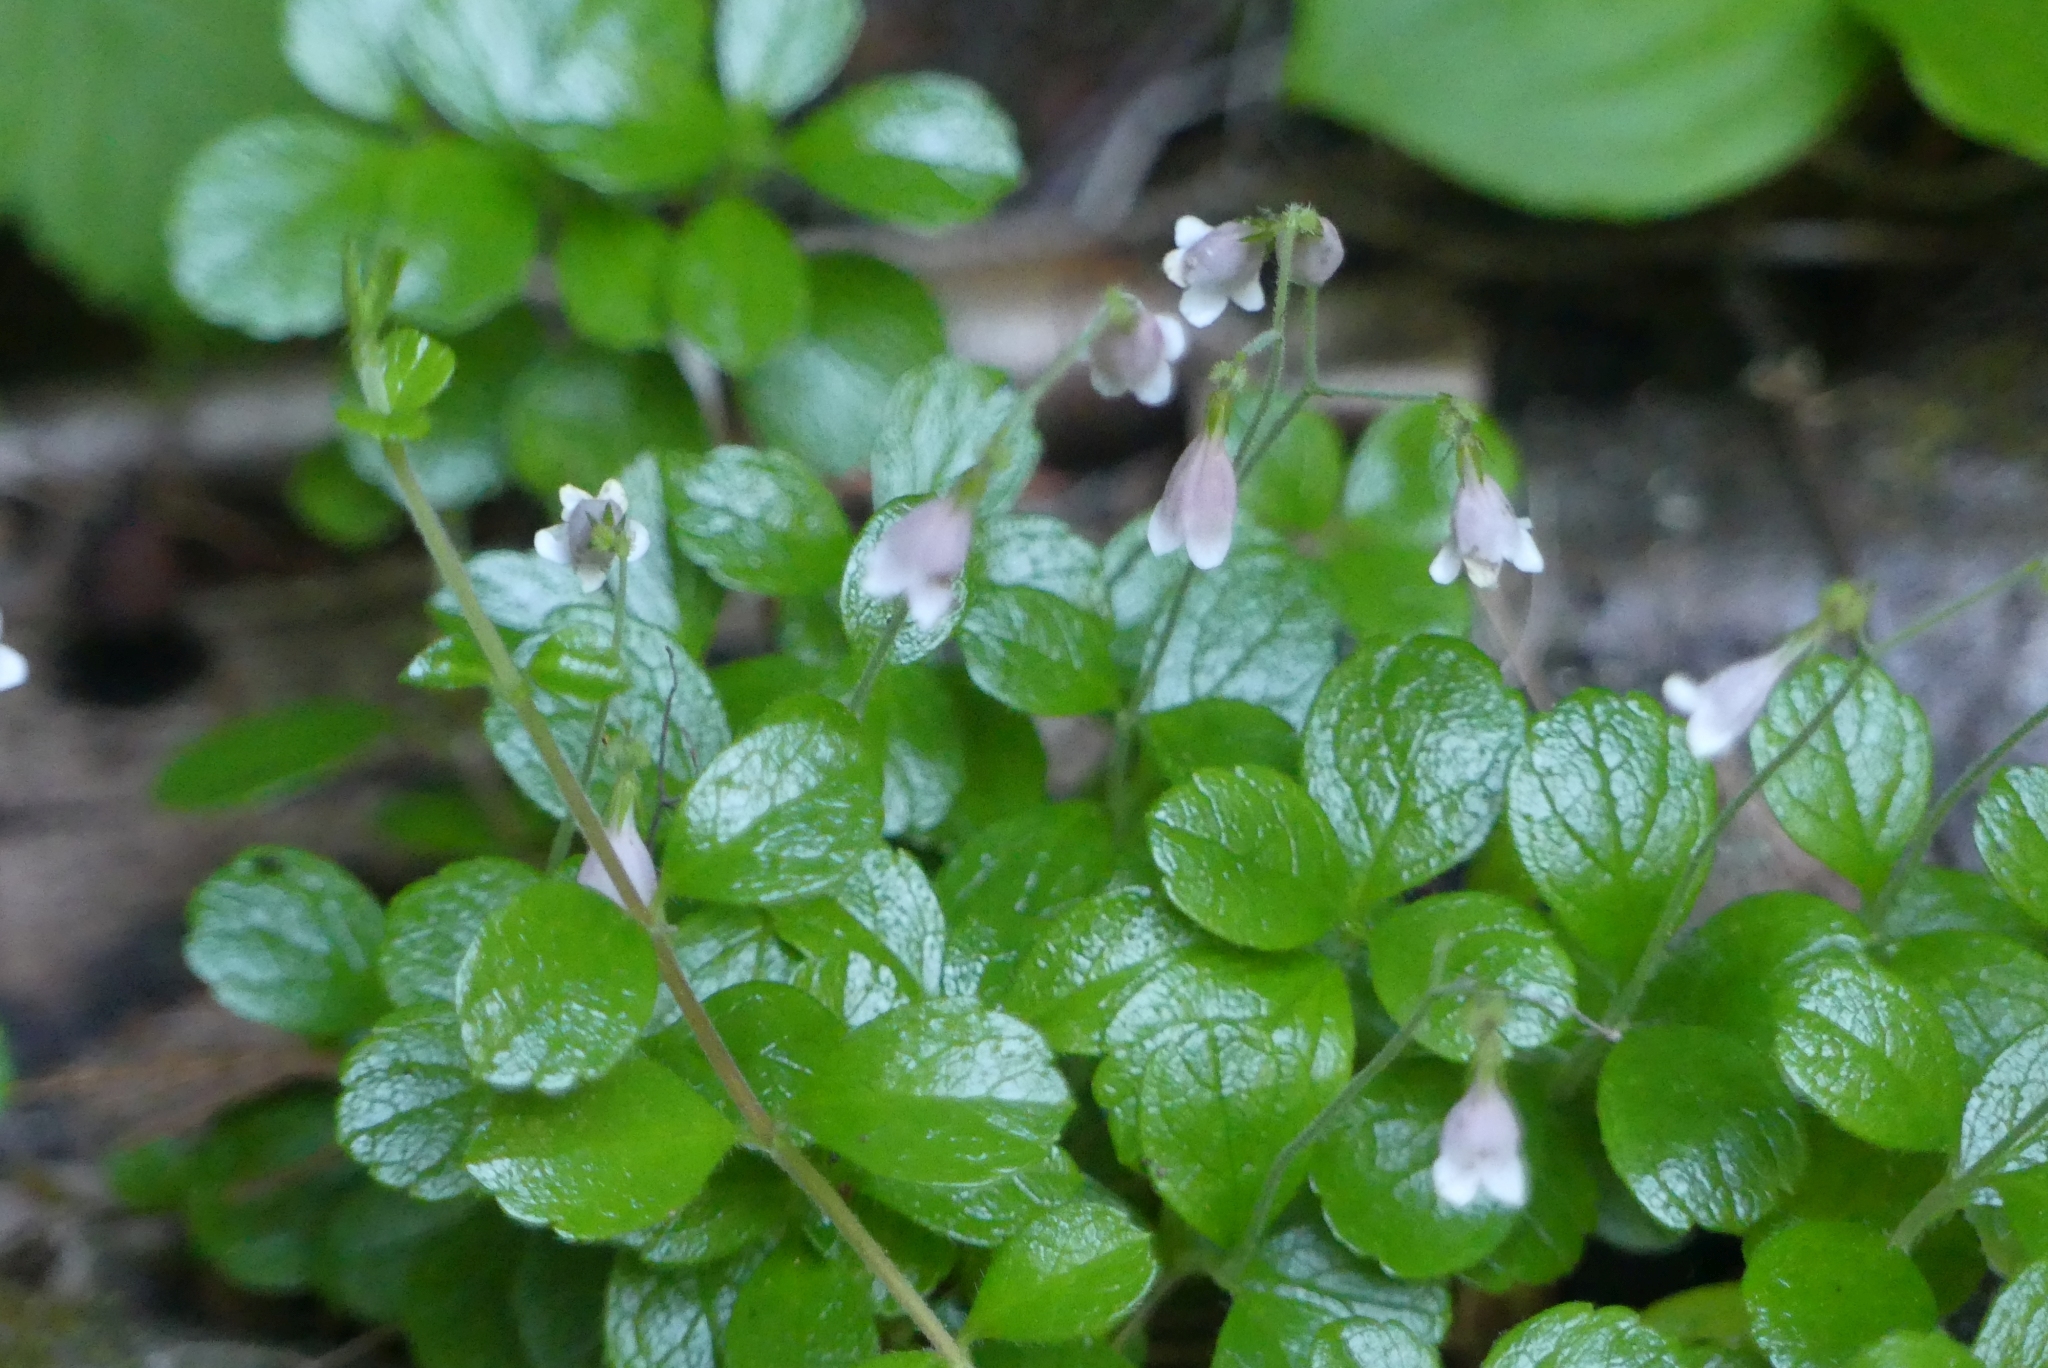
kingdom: Plantae
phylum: Tracheophyta
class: Magnoliopsida
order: Dipsacales
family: Caprifoliaceae
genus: Linnaea
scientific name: Linnaea borealis
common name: Twinflower
